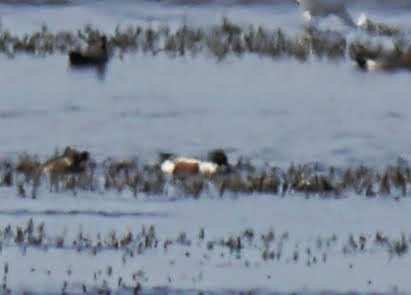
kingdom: Animalia
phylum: Chordata
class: Aves
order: Anseriformes
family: Anatidae
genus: Spatula
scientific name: Spatula clypeata
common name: Northern shoveler
